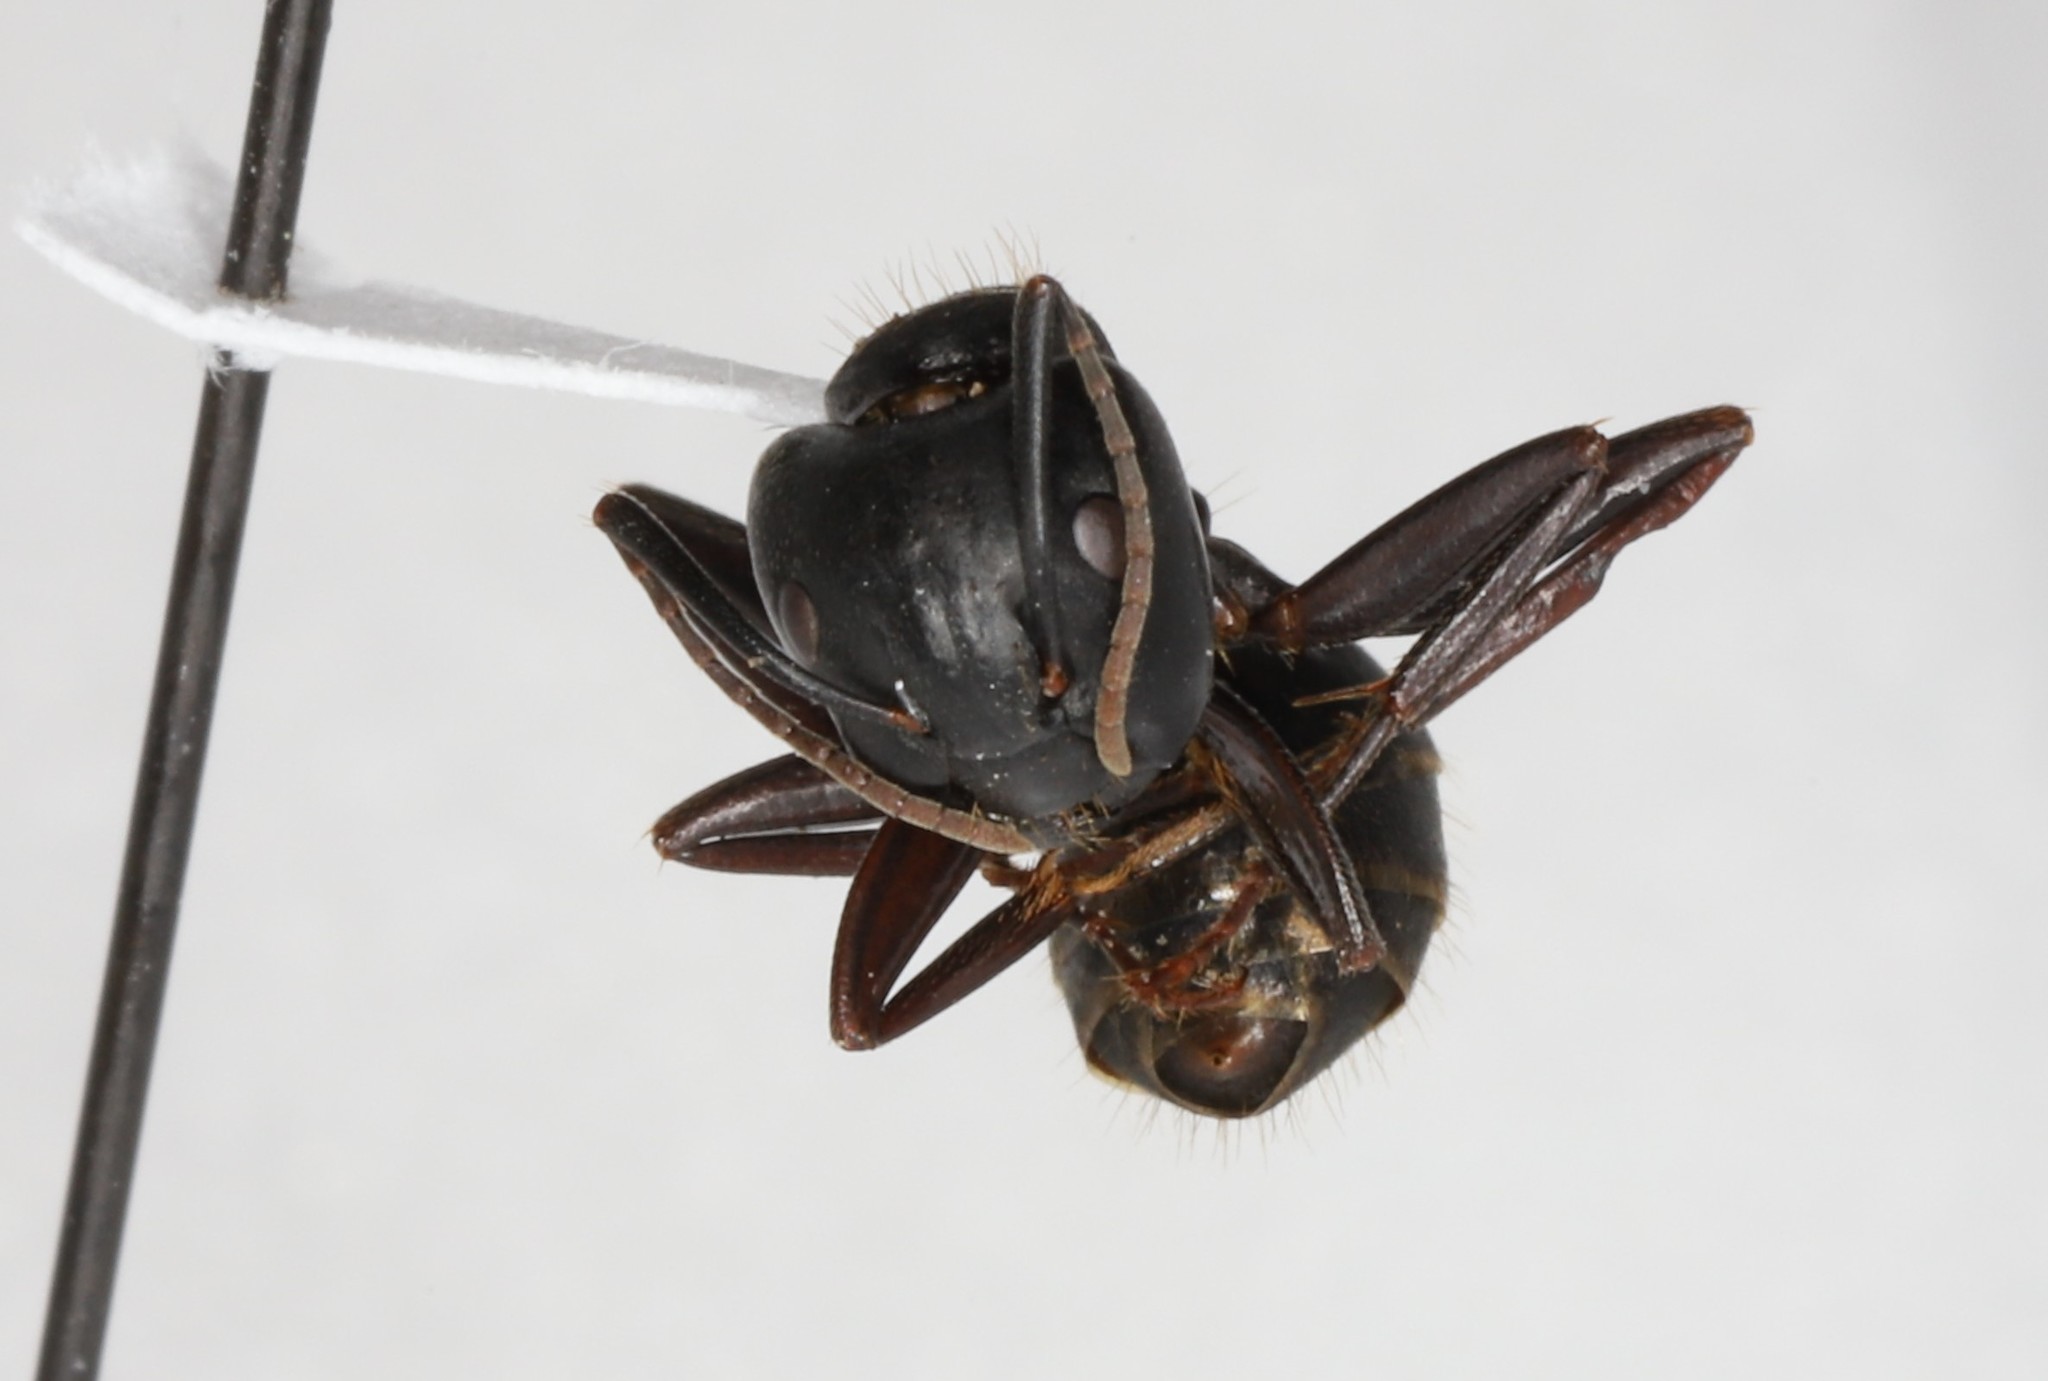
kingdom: Animalia
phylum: Arthropoda
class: Insecta
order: Hymenoptera
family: Formicidae
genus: Camponotus
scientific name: Camponotus pennsylvanicus
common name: Black carpenter ant
